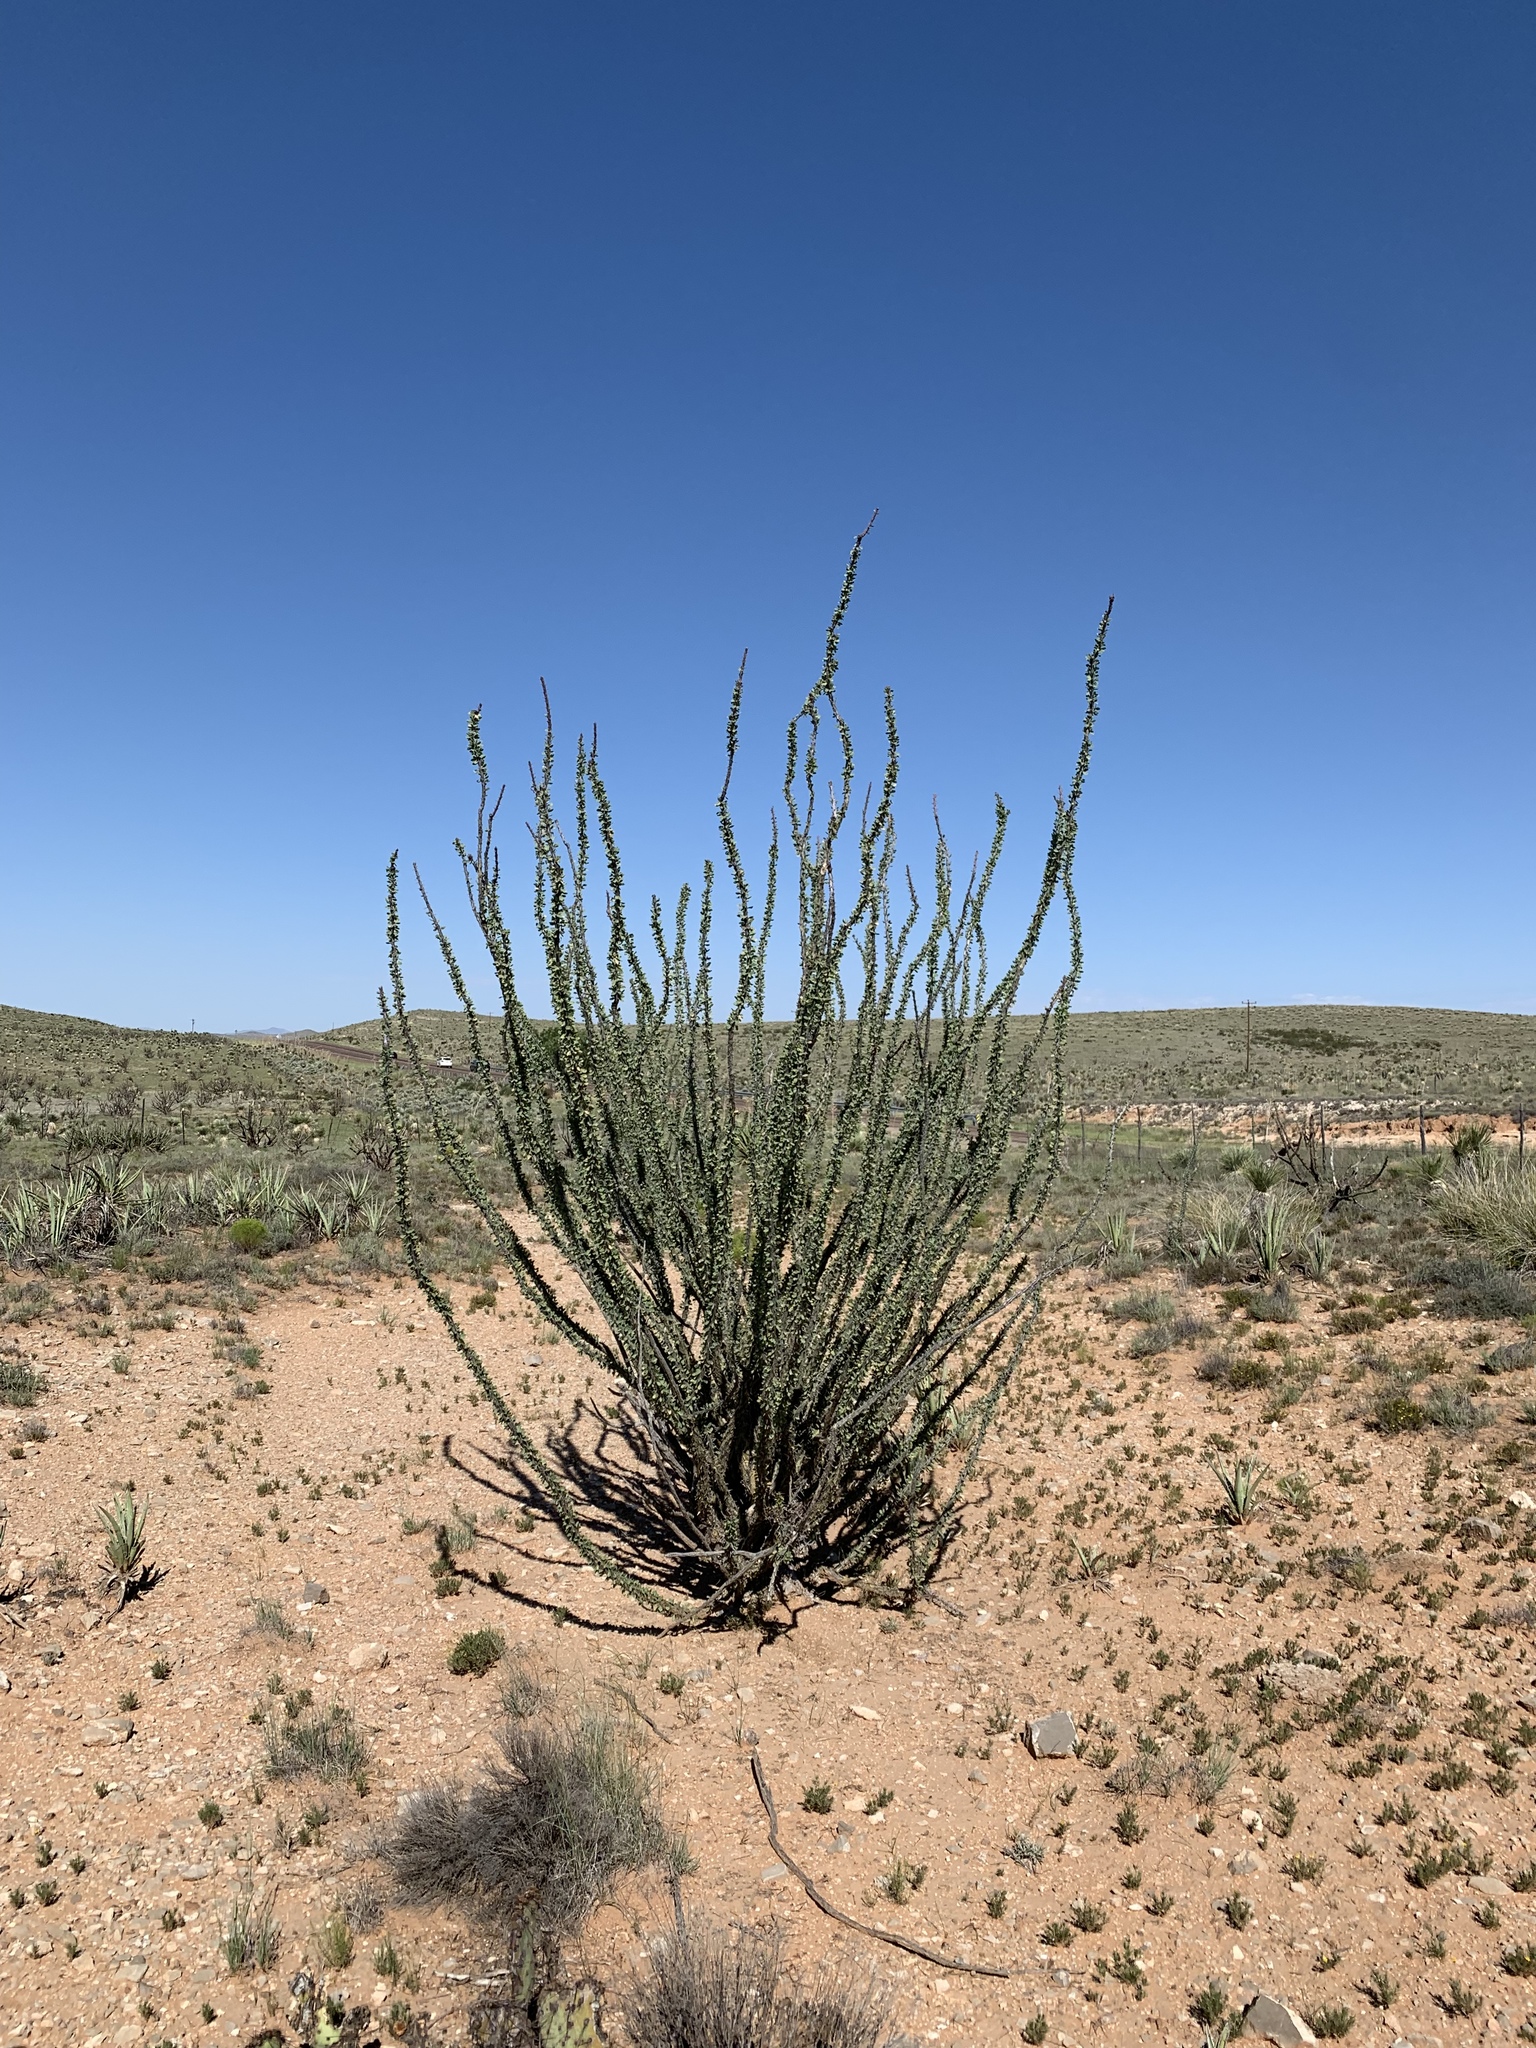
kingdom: Plantae
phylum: Tracheophyta
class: Magnoliopsida
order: Ericales
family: Fouquieriaceae
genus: Fouquieria
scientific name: Fouquieria splendens
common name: Vine-cactus
